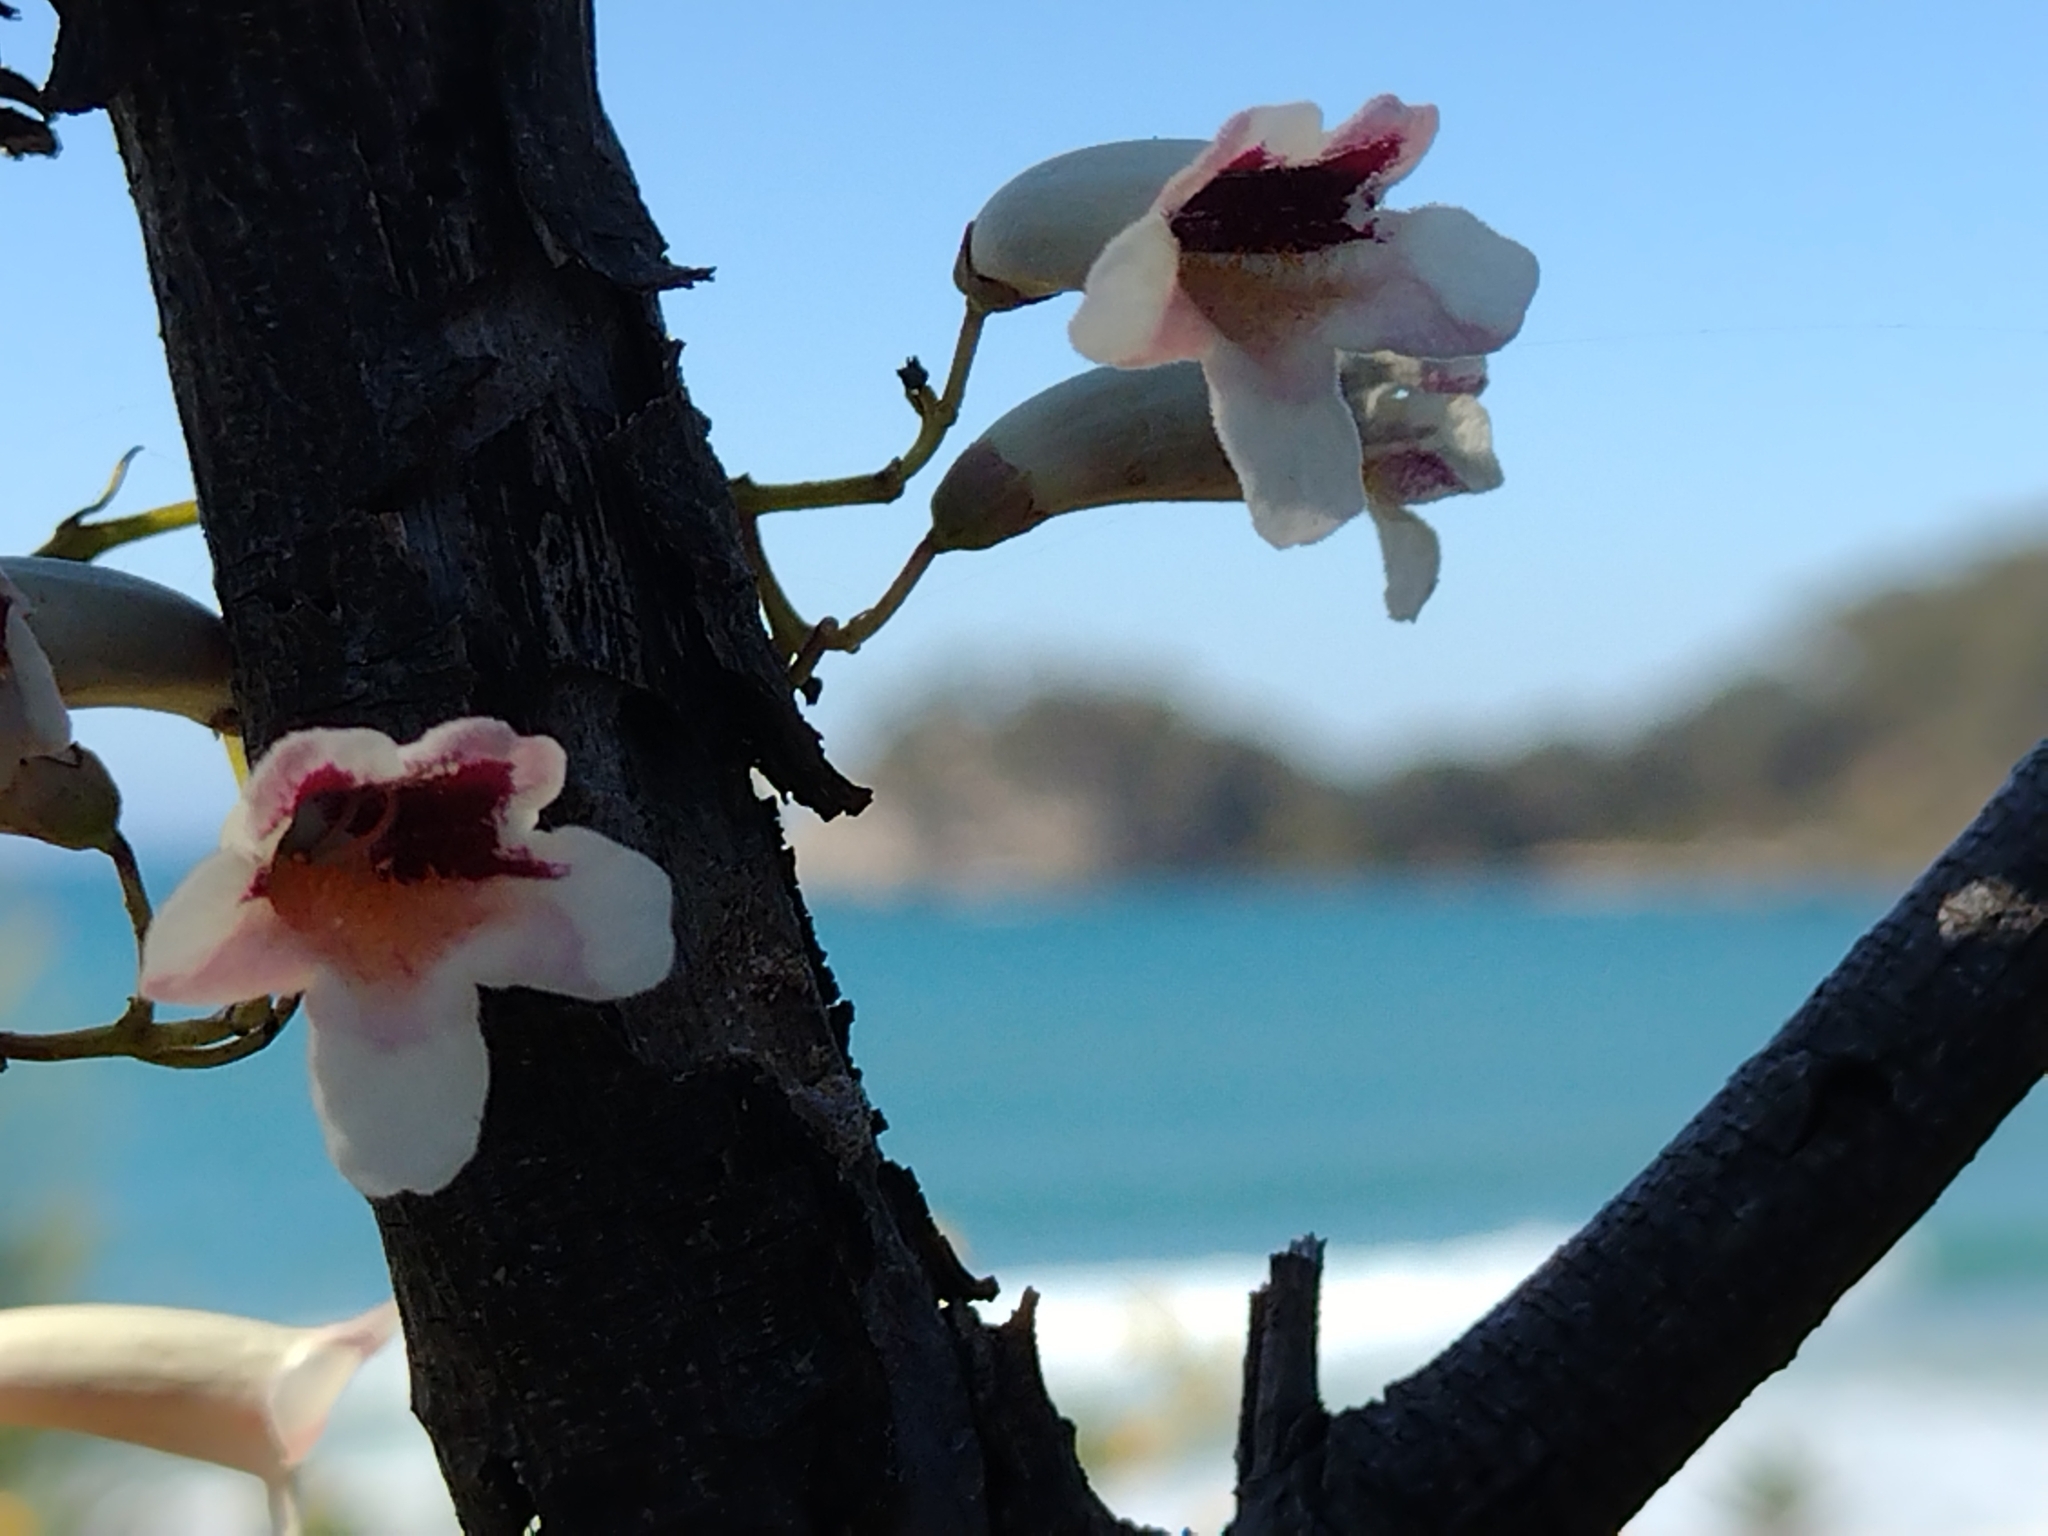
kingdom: Plantae
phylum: Tracheophyta
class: Magnoliopsida
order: Lamiales
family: Bignoniaceae
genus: Pandorea
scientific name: Pandorea pandorana
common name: Wonga-wonga-vine
